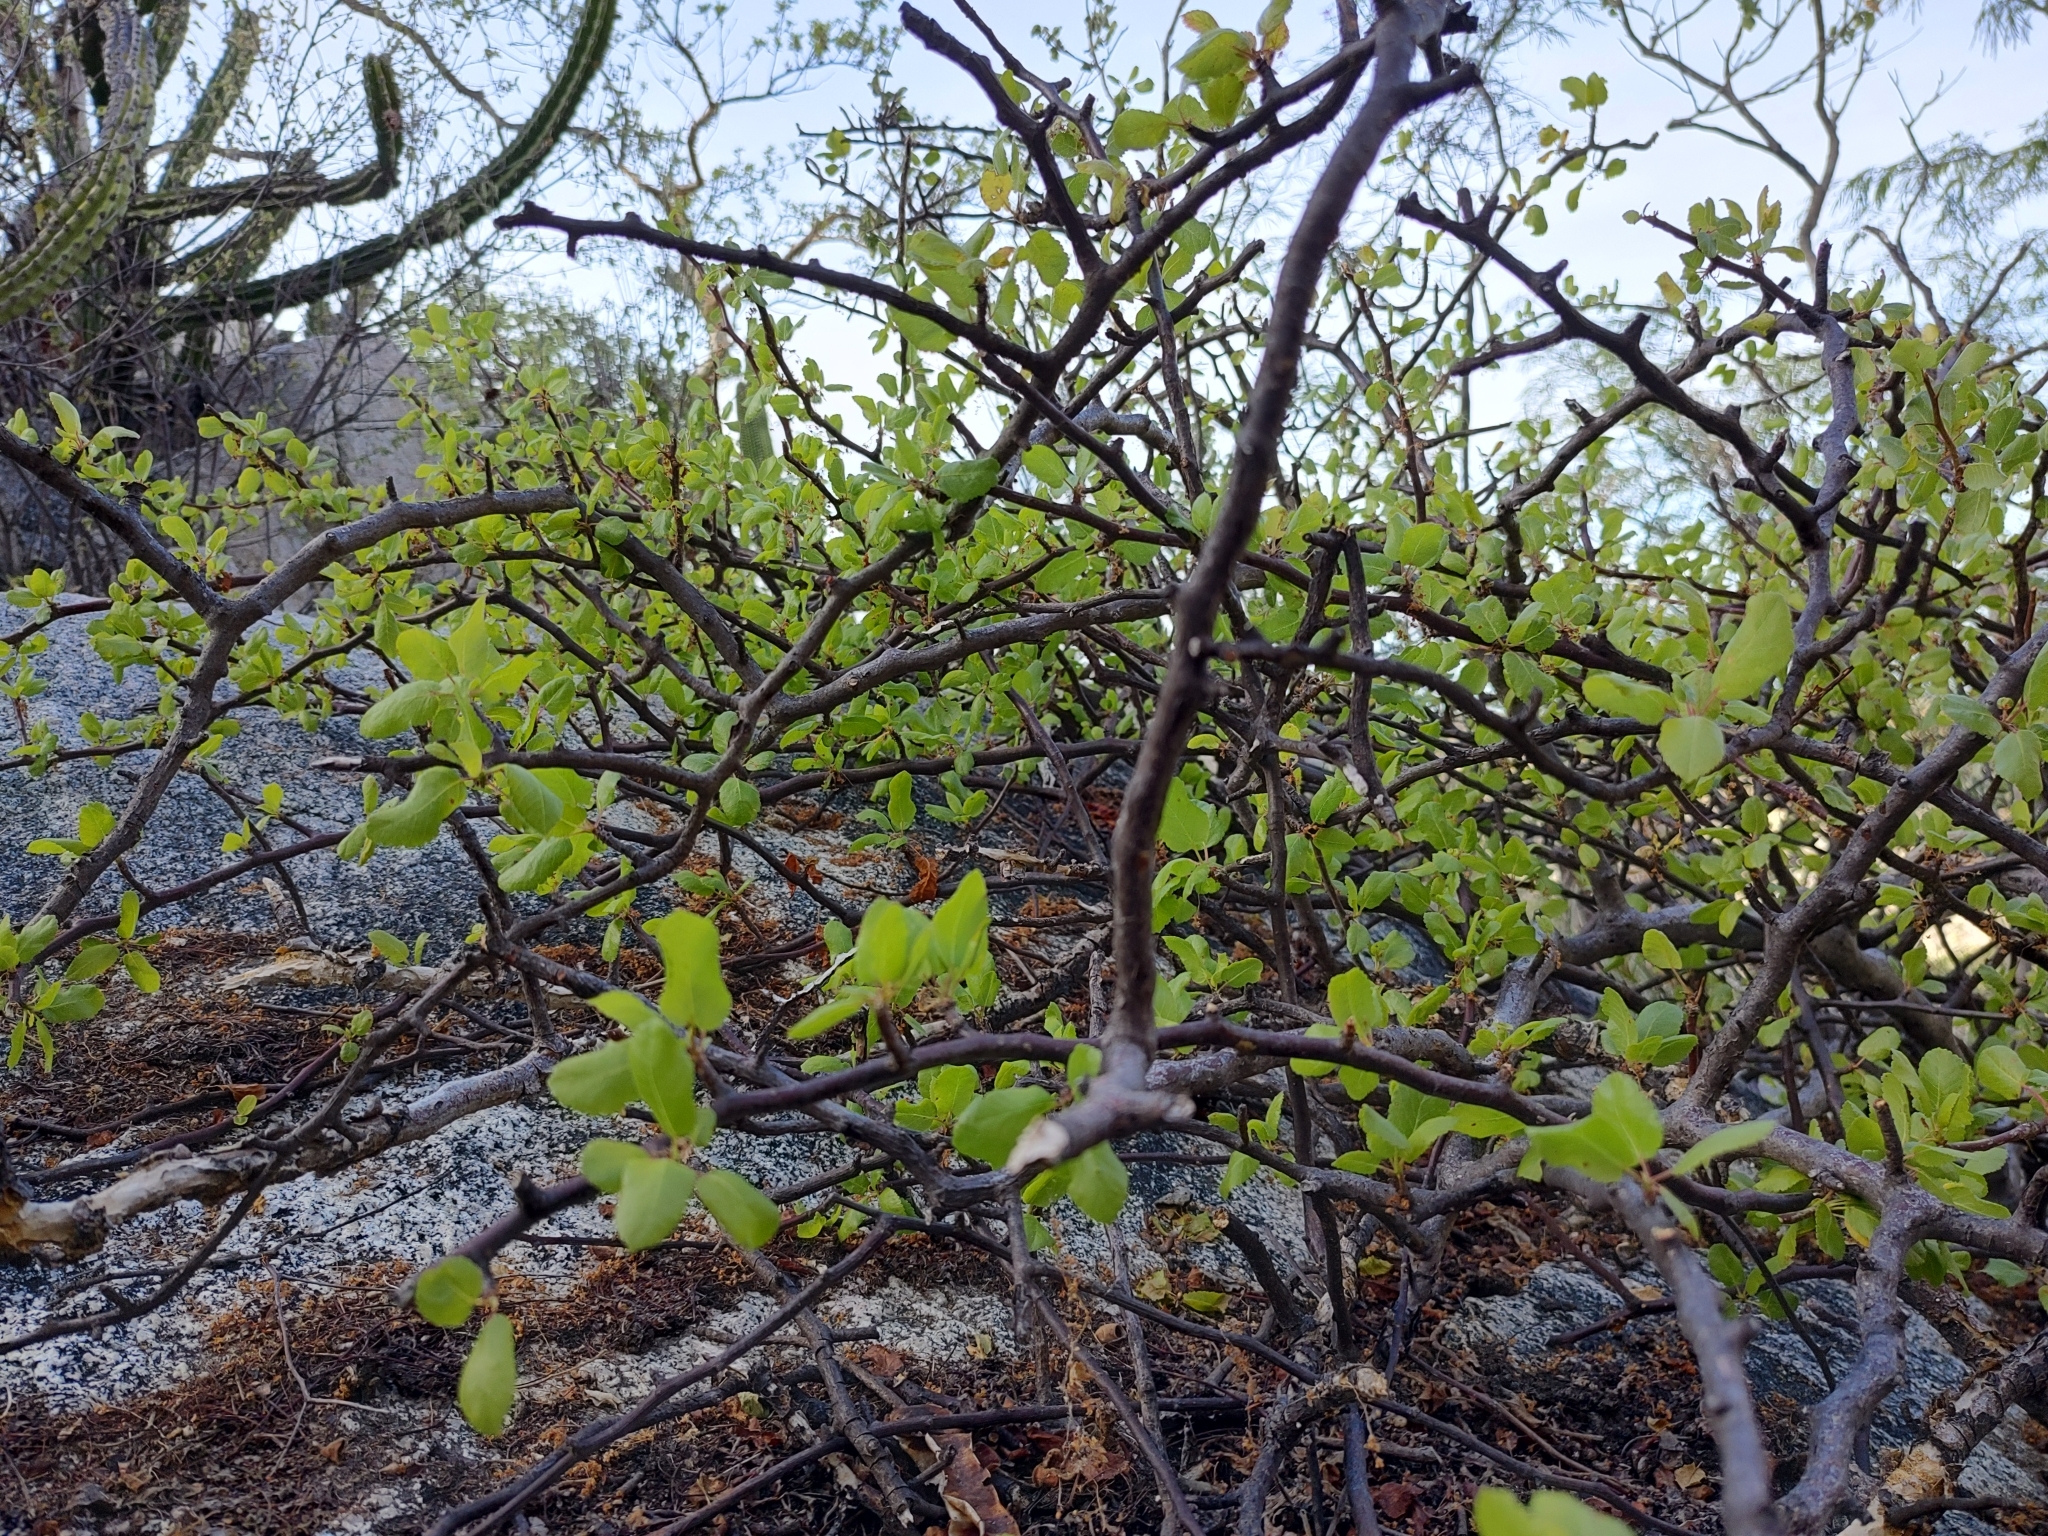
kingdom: Plantae
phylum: Tracheophyta
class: Magnoliopsida
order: Sapindales
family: Burseraceae
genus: Bursera
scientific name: Bursera rupicola
